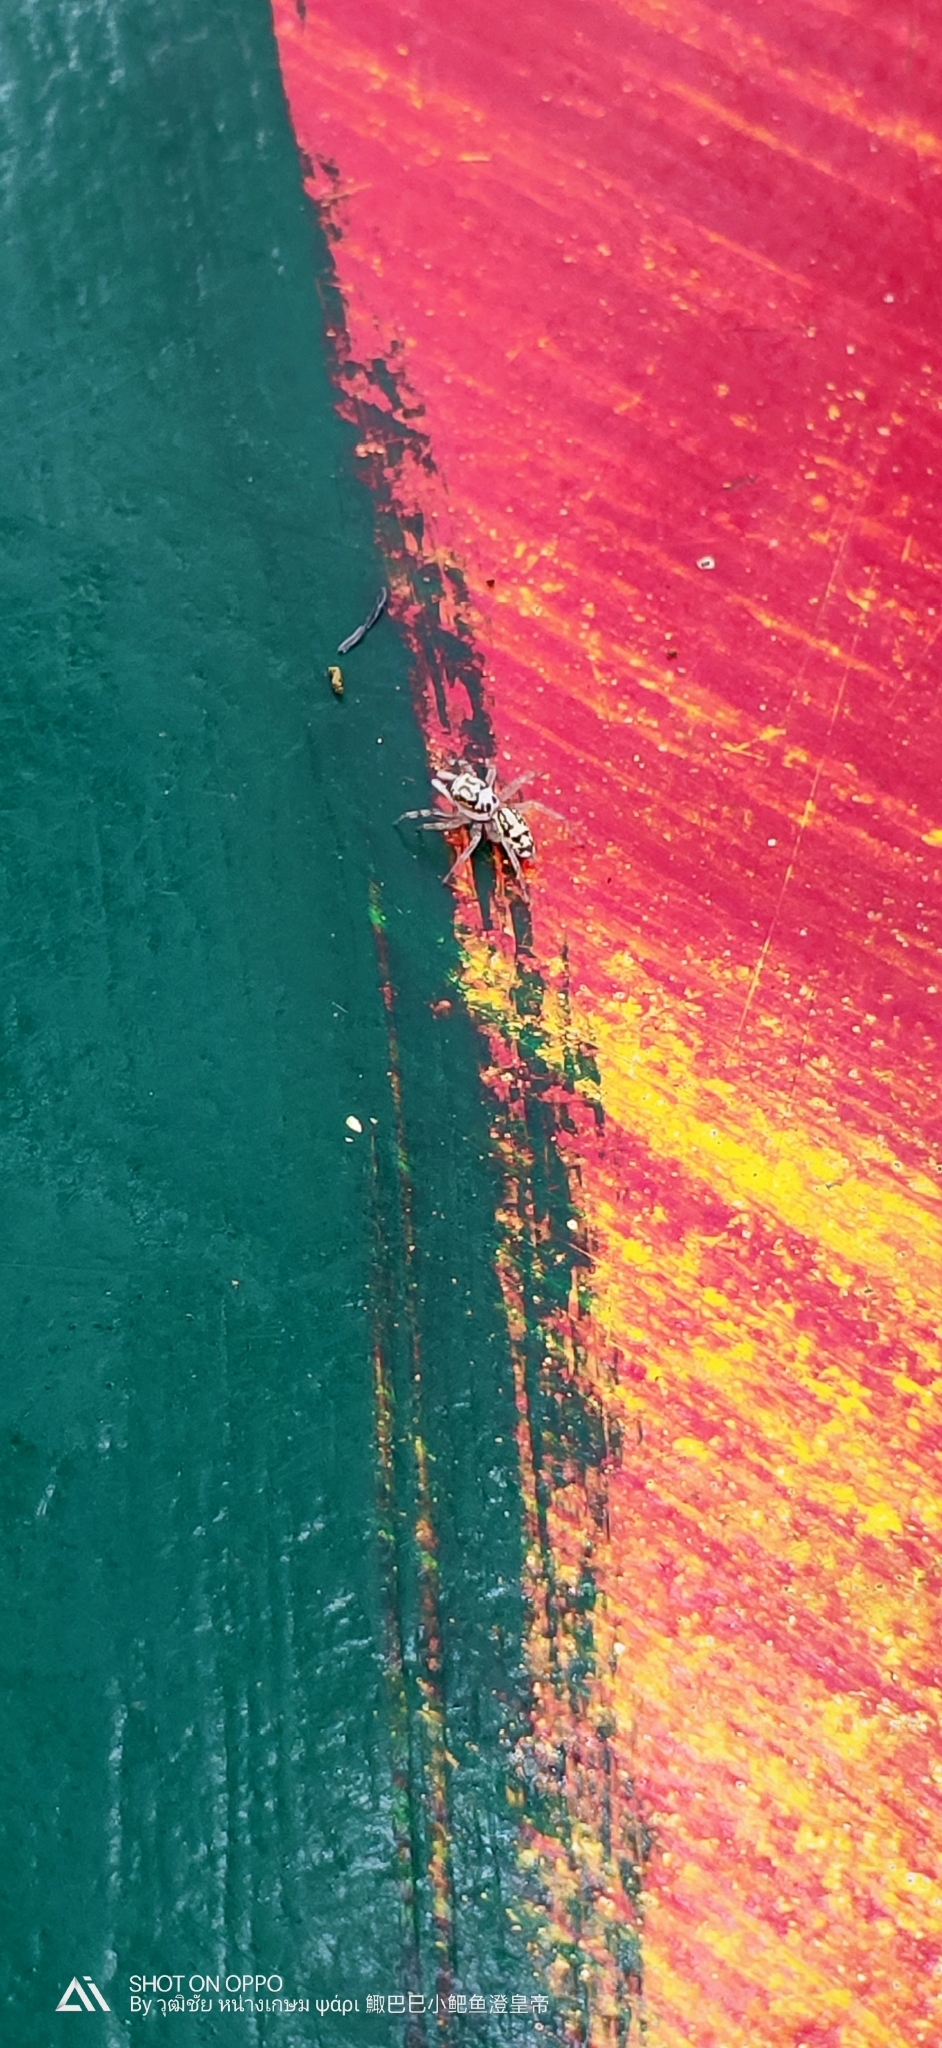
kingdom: Animalia
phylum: Arthropoda
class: Arachnida
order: Araneae
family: Salticidae
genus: Phintelloides
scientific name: Phintelloides versicolor
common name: Jumping spider
